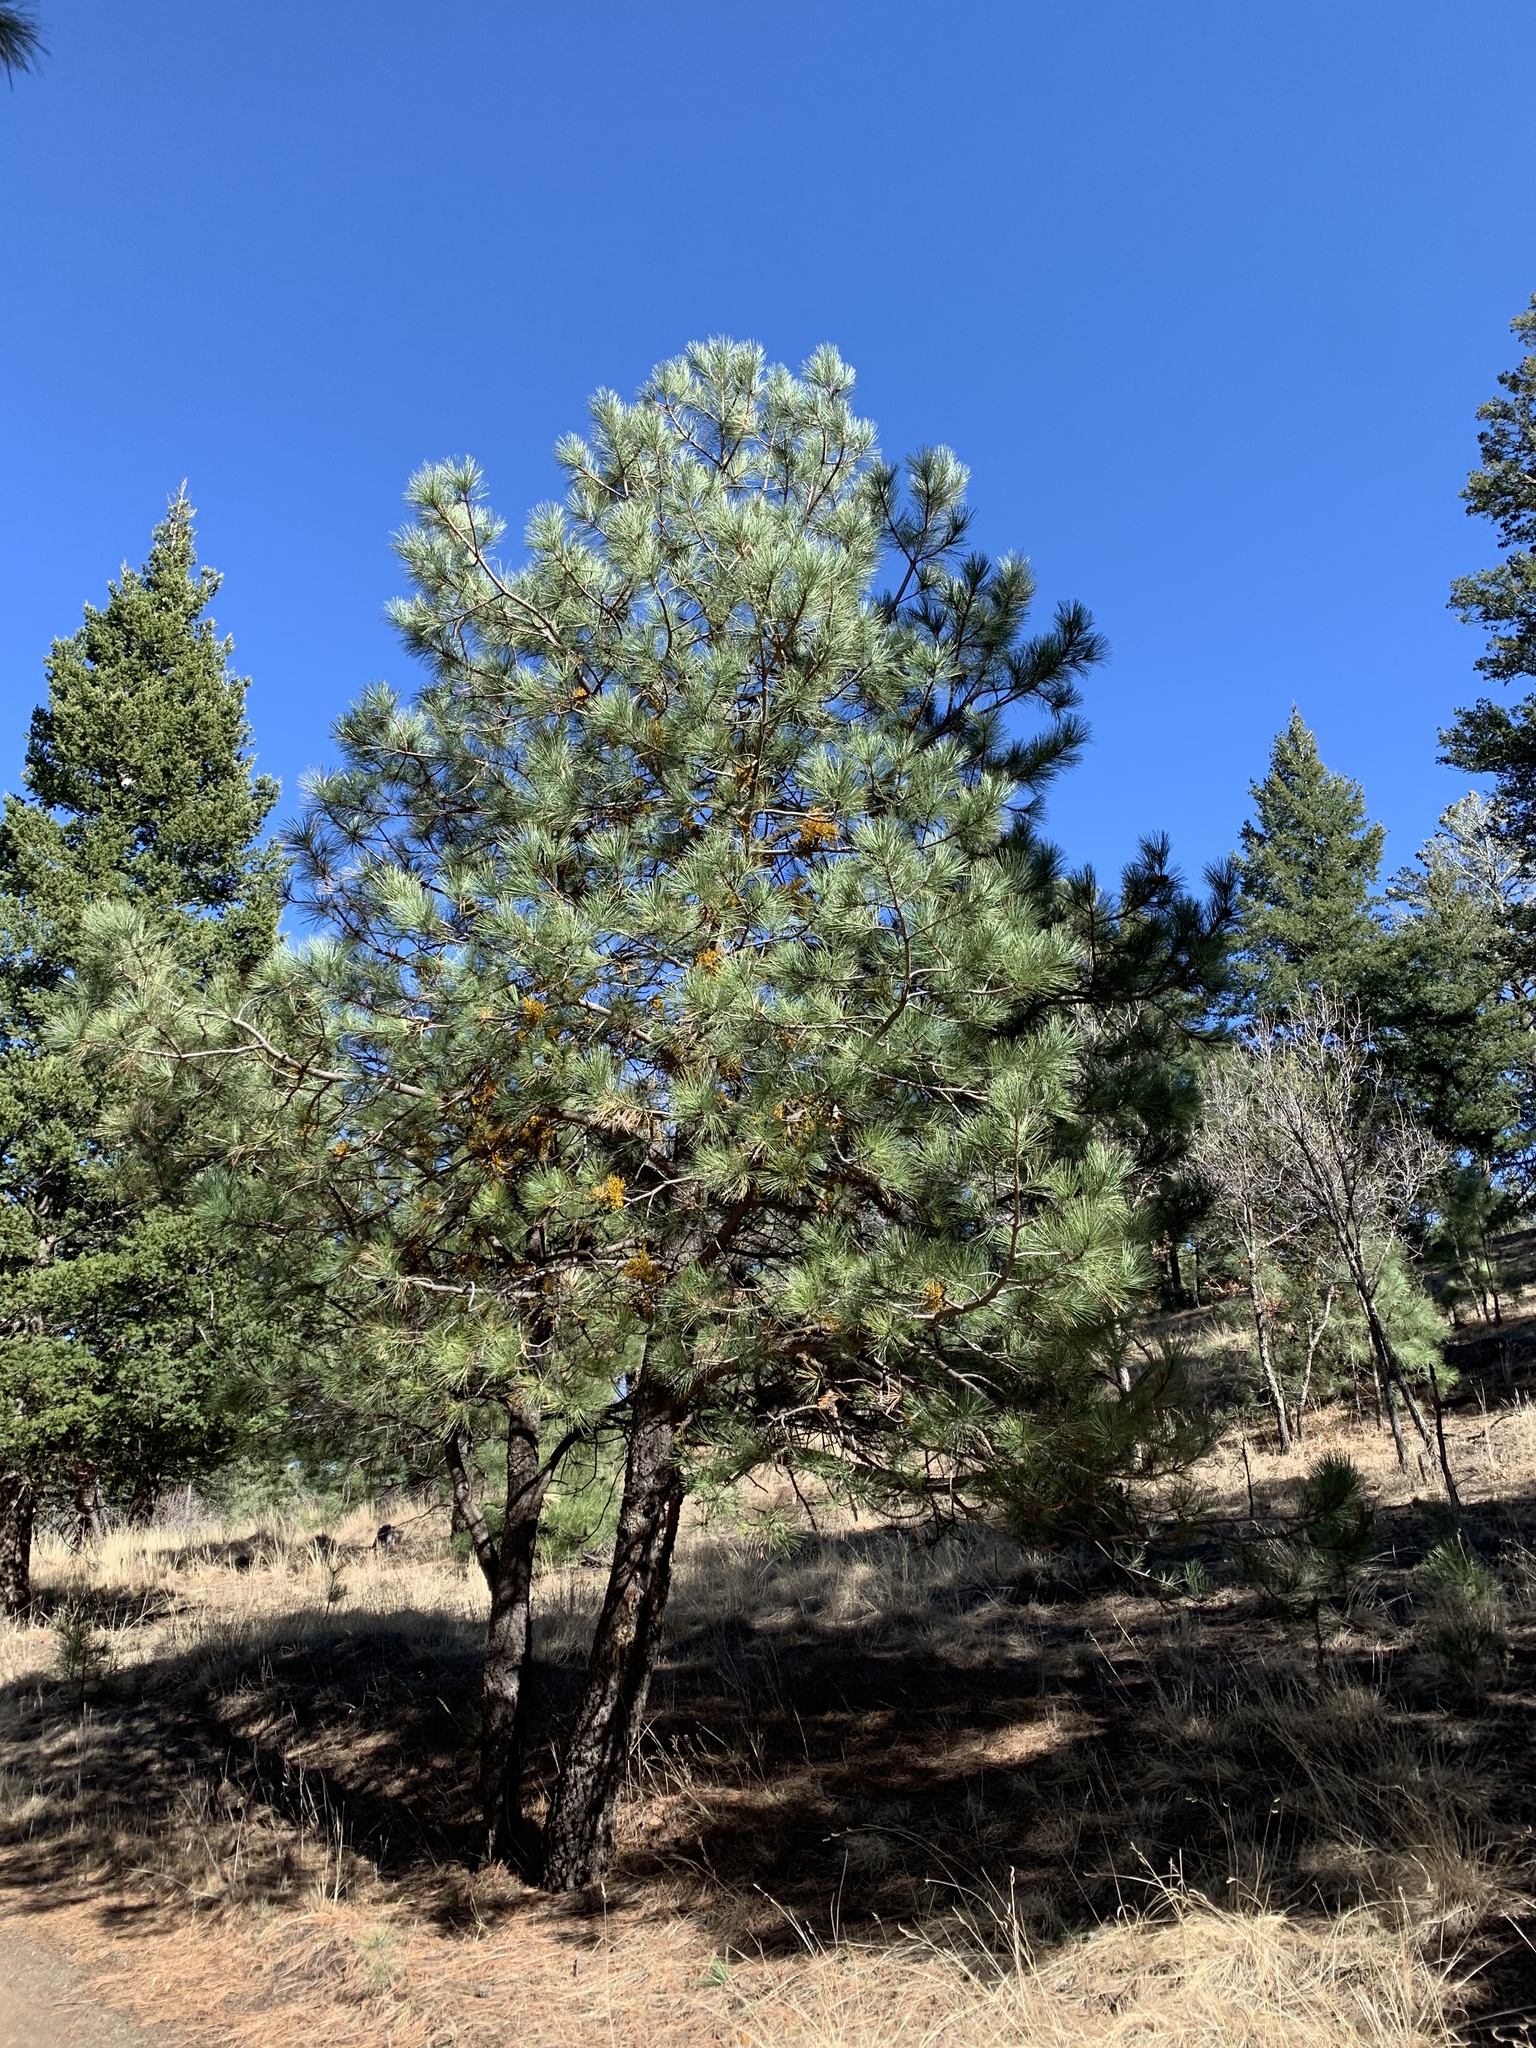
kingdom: Plantae
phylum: Tracheophyta
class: Pinopsida
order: Pinales
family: Pinaceae
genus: Pinus
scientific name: Pinus ponderosa
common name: Western yellow-pine
